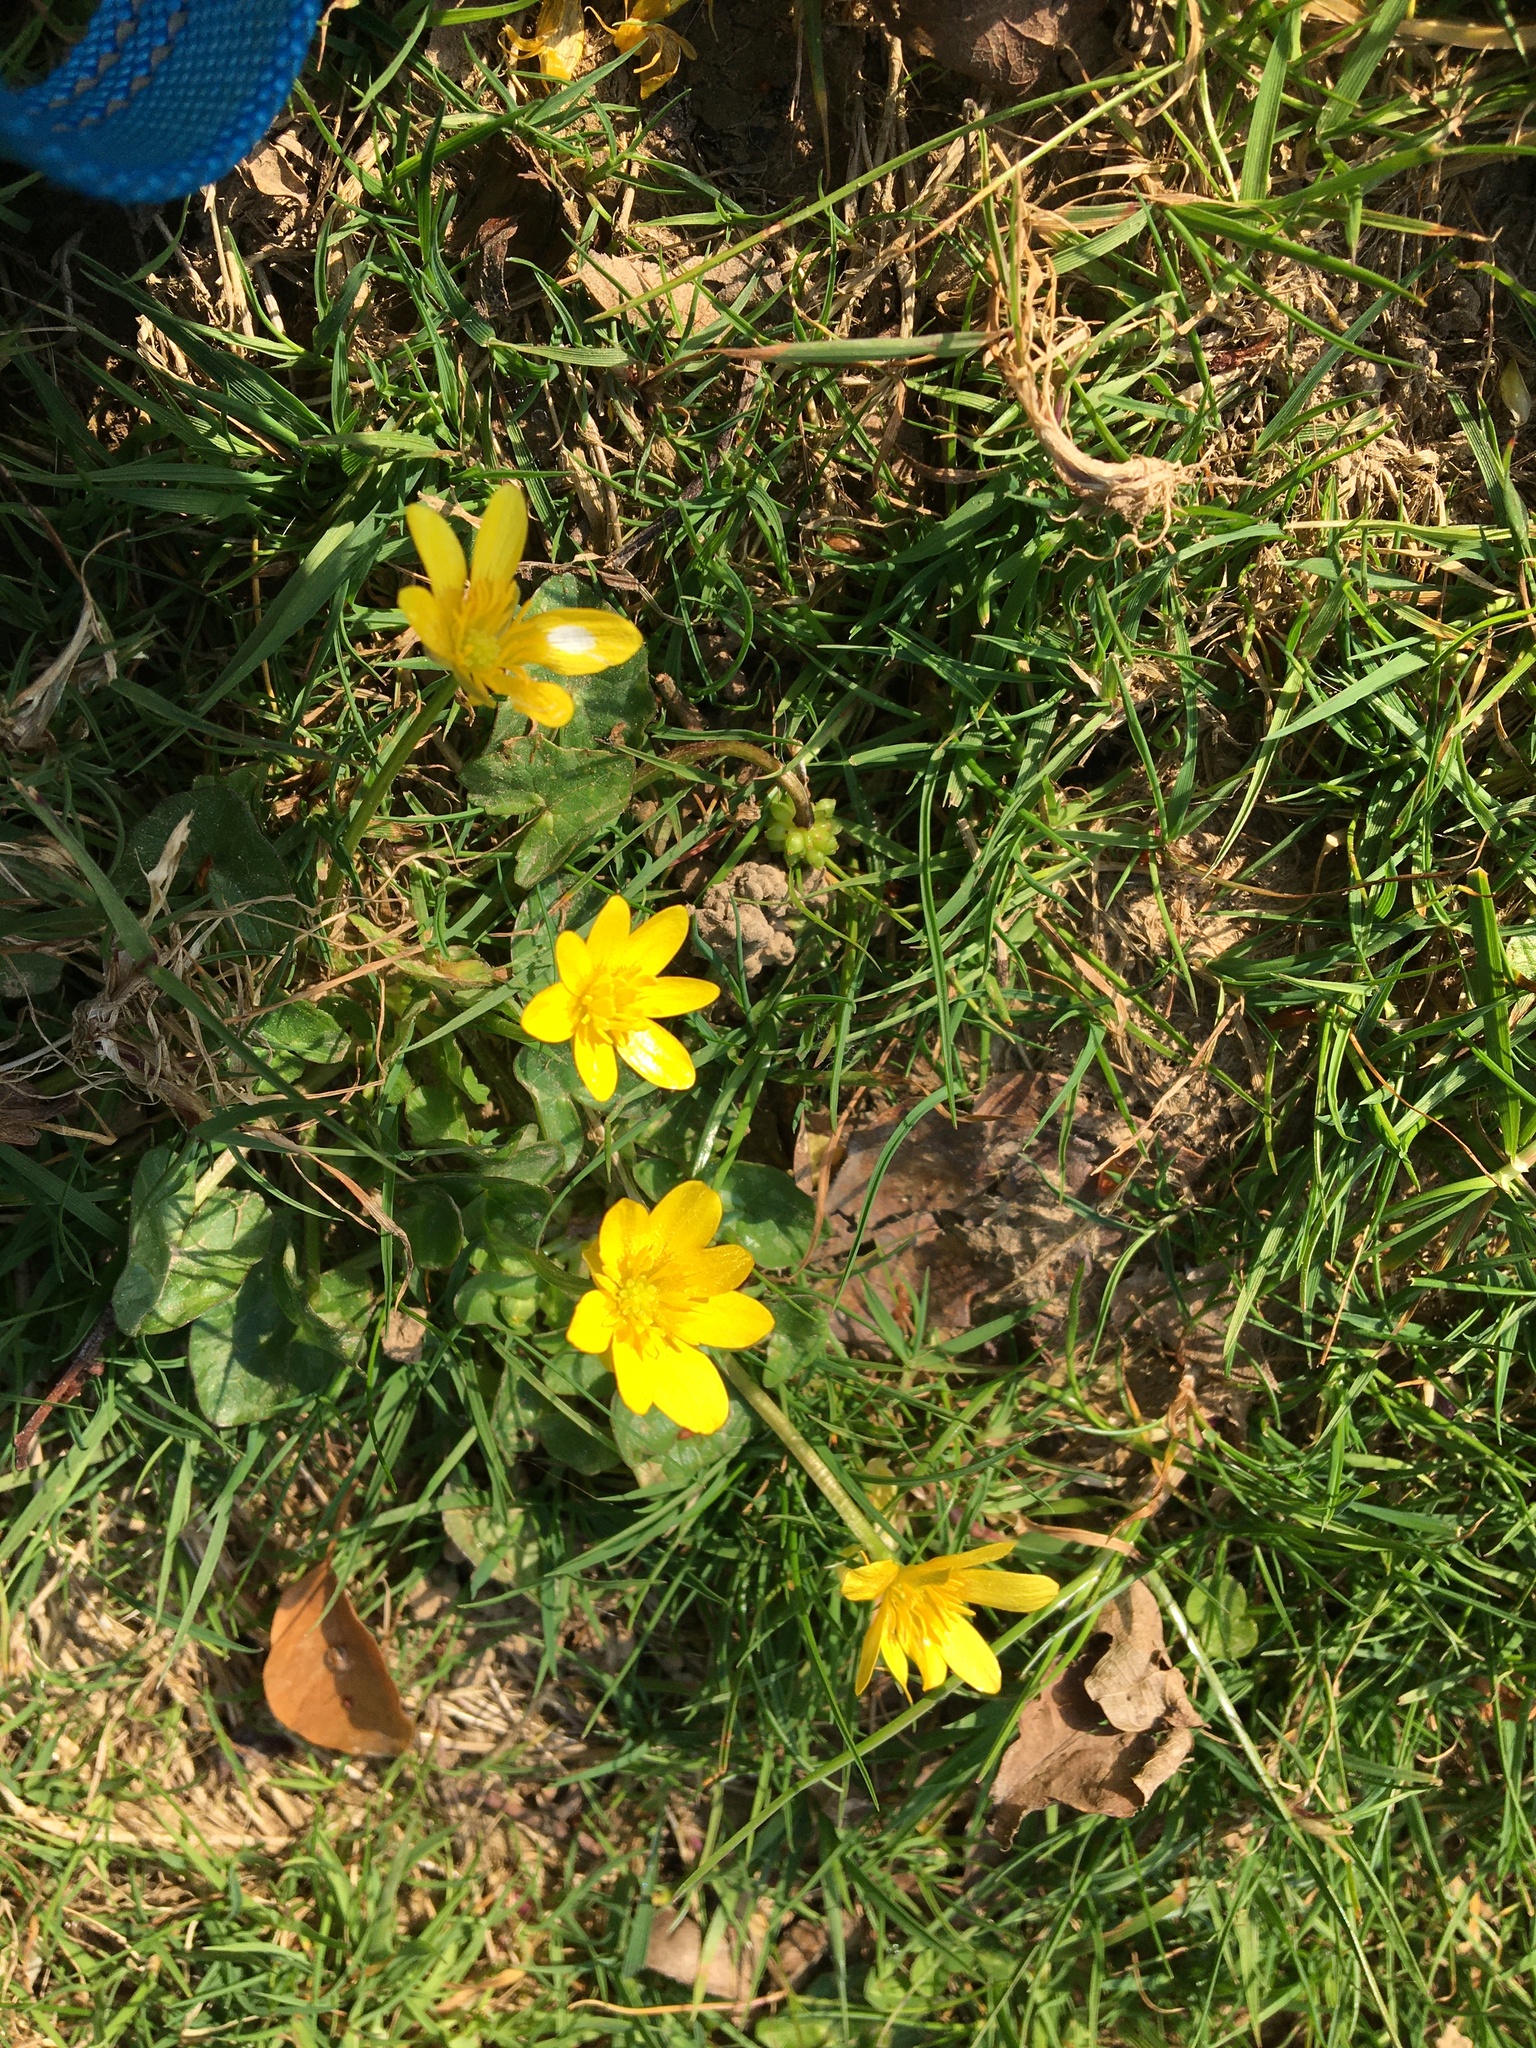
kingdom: Plantae
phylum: Tracheophyta
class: Magnoliopsida
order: Ranunculales
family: Ranunculaceae
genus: Ficaria
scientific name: Ficaria verna
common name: Lesser celandine
